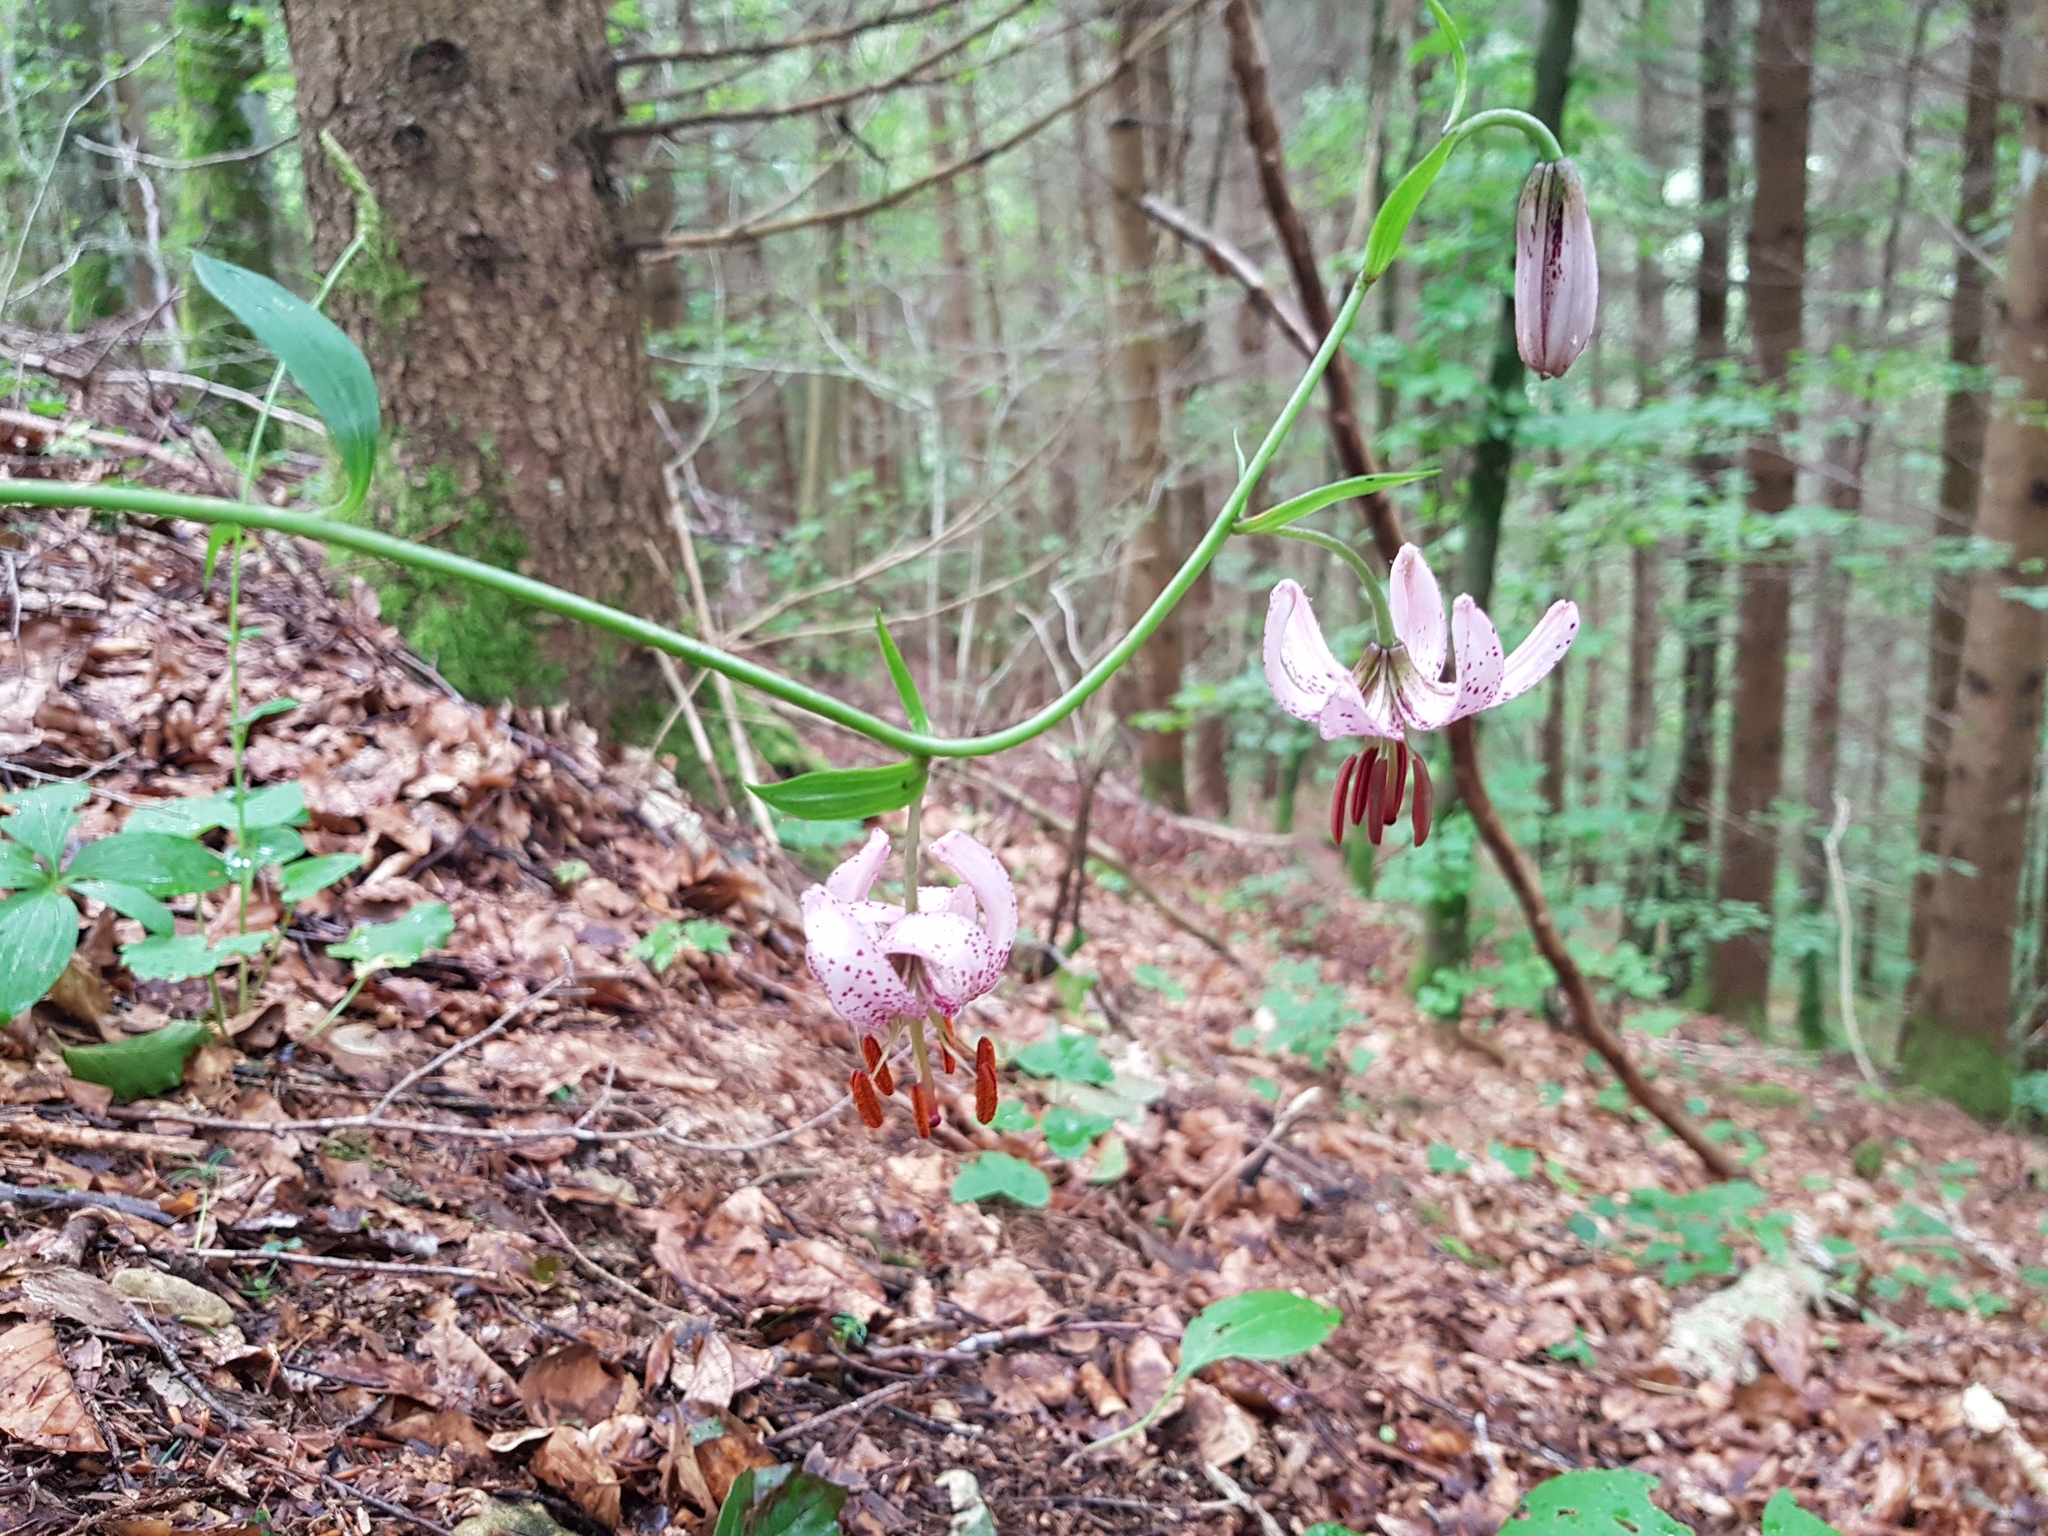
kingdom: Plantae
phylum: Tracheophyta
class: Liliopsida
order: Liliales
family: Liliaceae
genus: Lilium
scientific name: Lilium martagon
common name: Martagon lily
